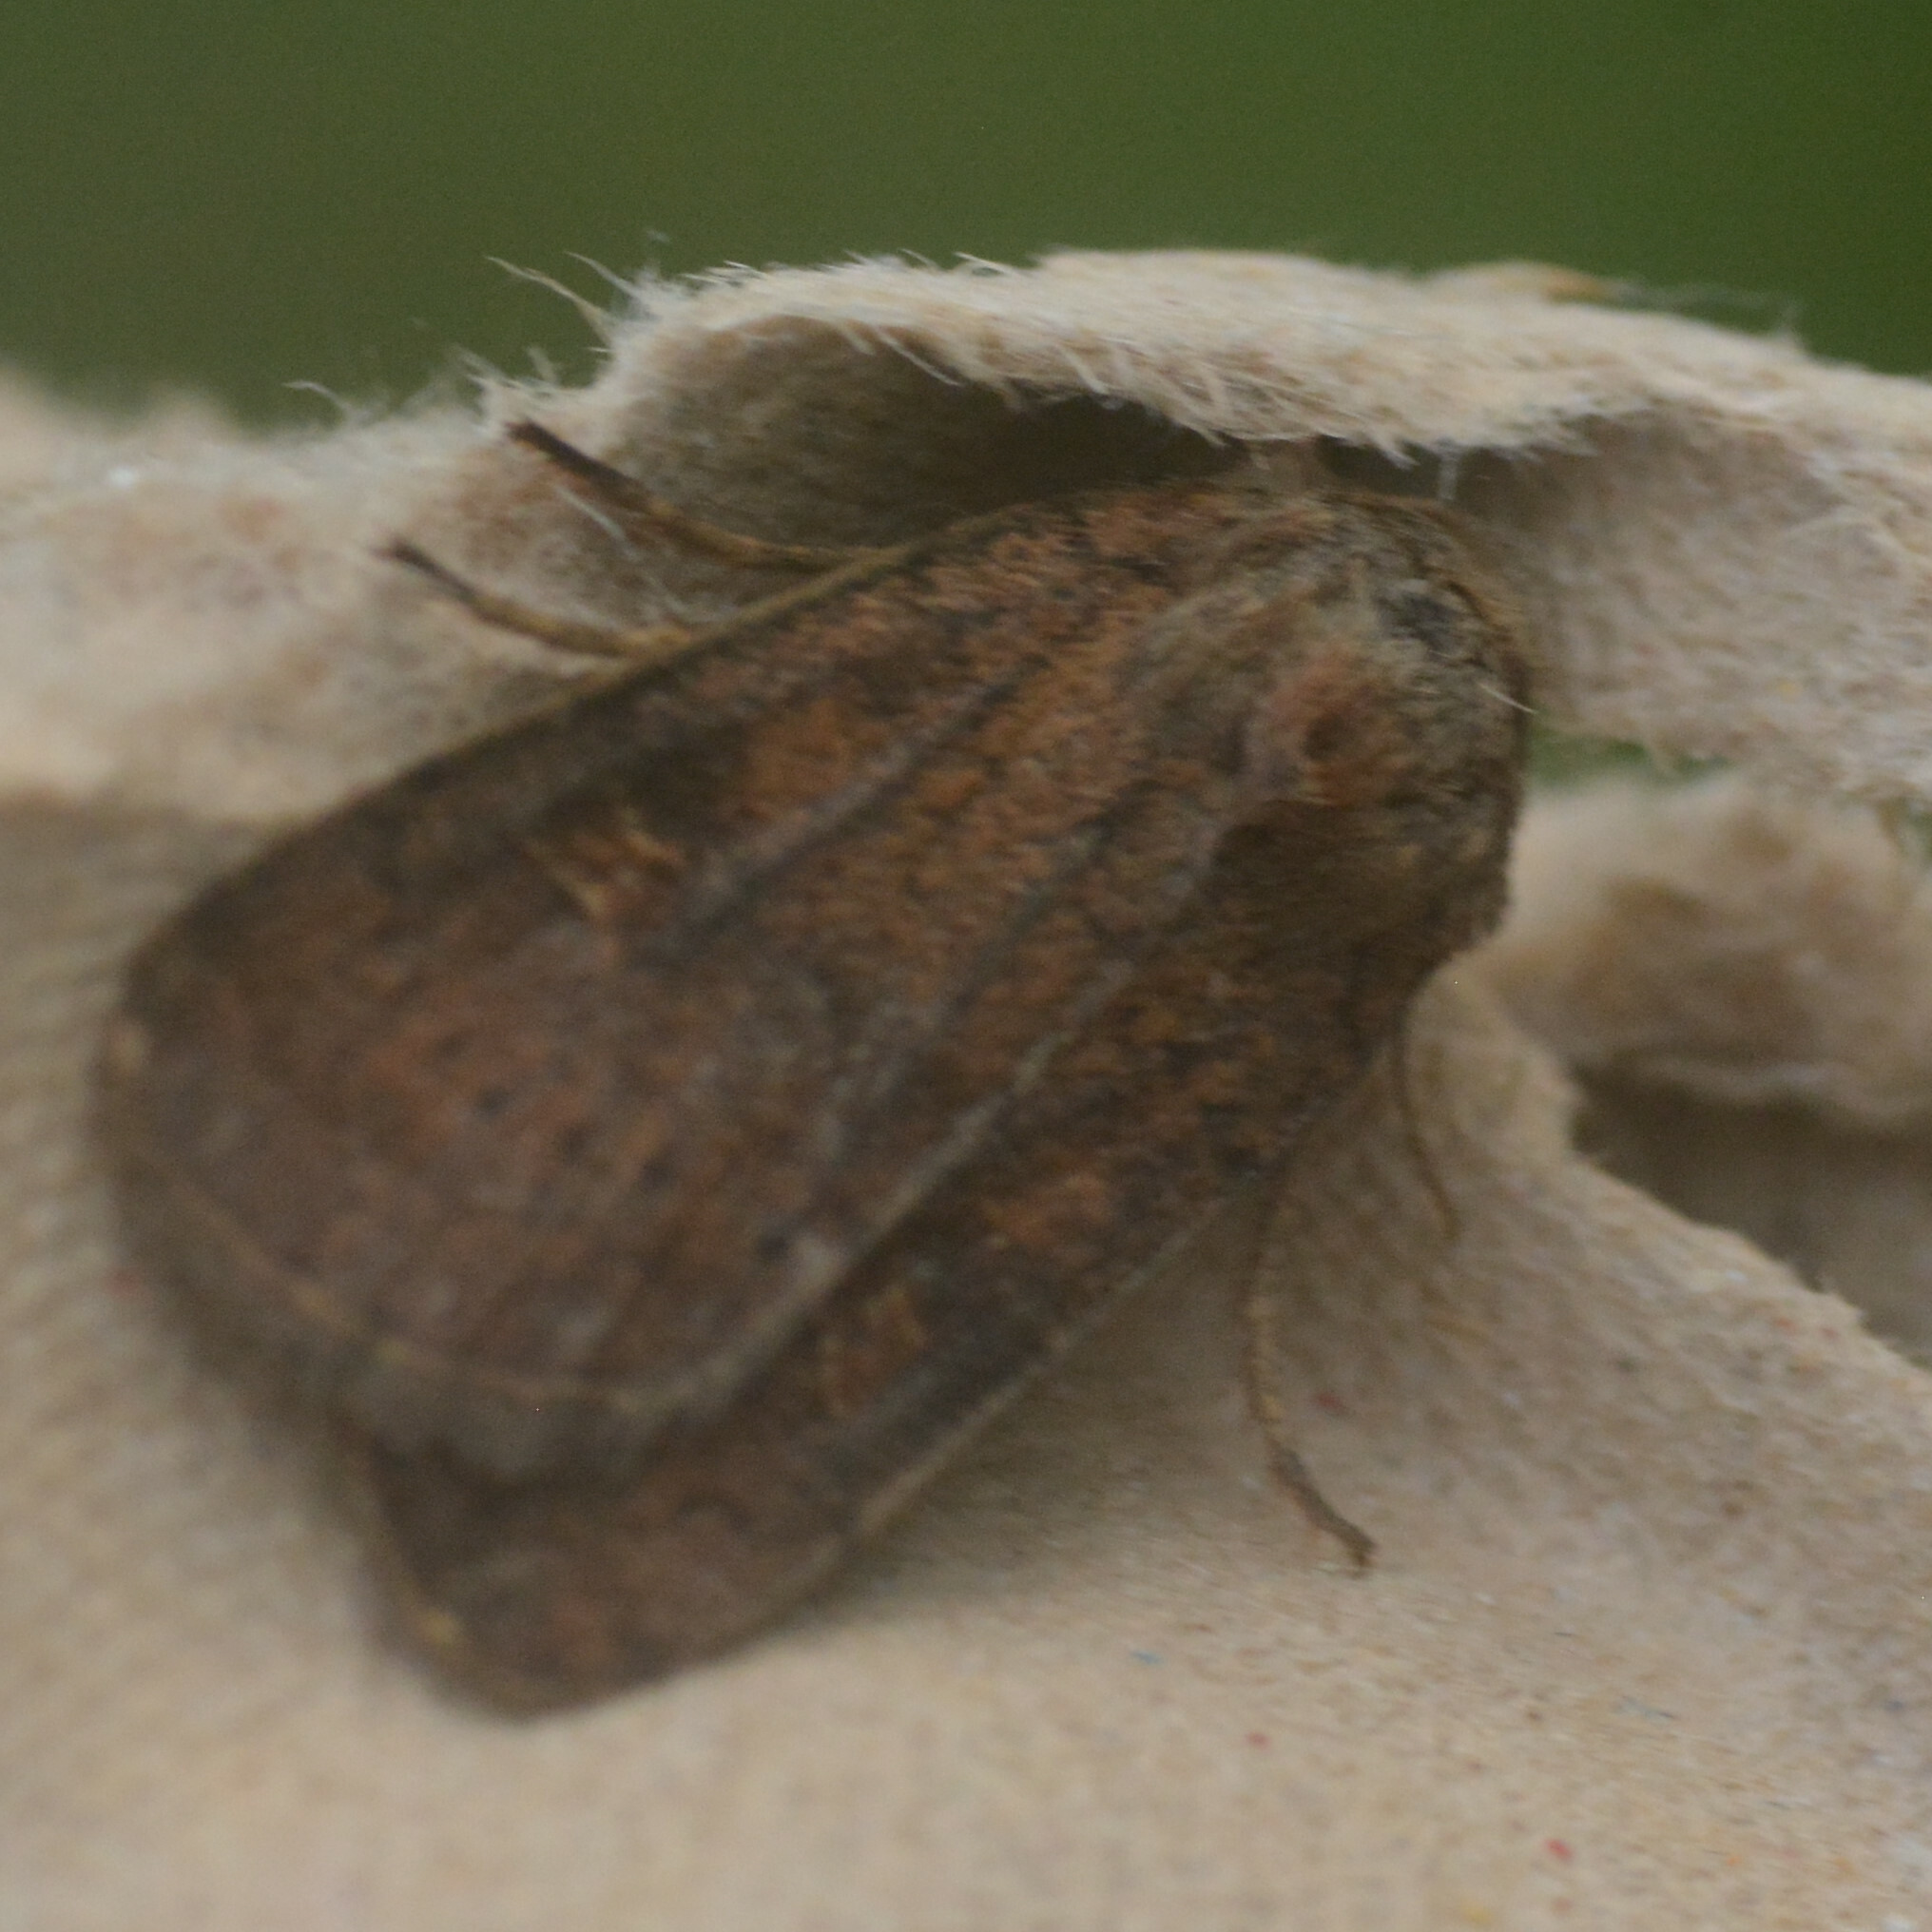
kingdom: Animalia
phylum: Arthropoda
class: Insecta
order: Lepidoptera
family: Noctuidae
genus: Xestia
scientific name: Xestia xanthographa
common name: Square-spot rustic
